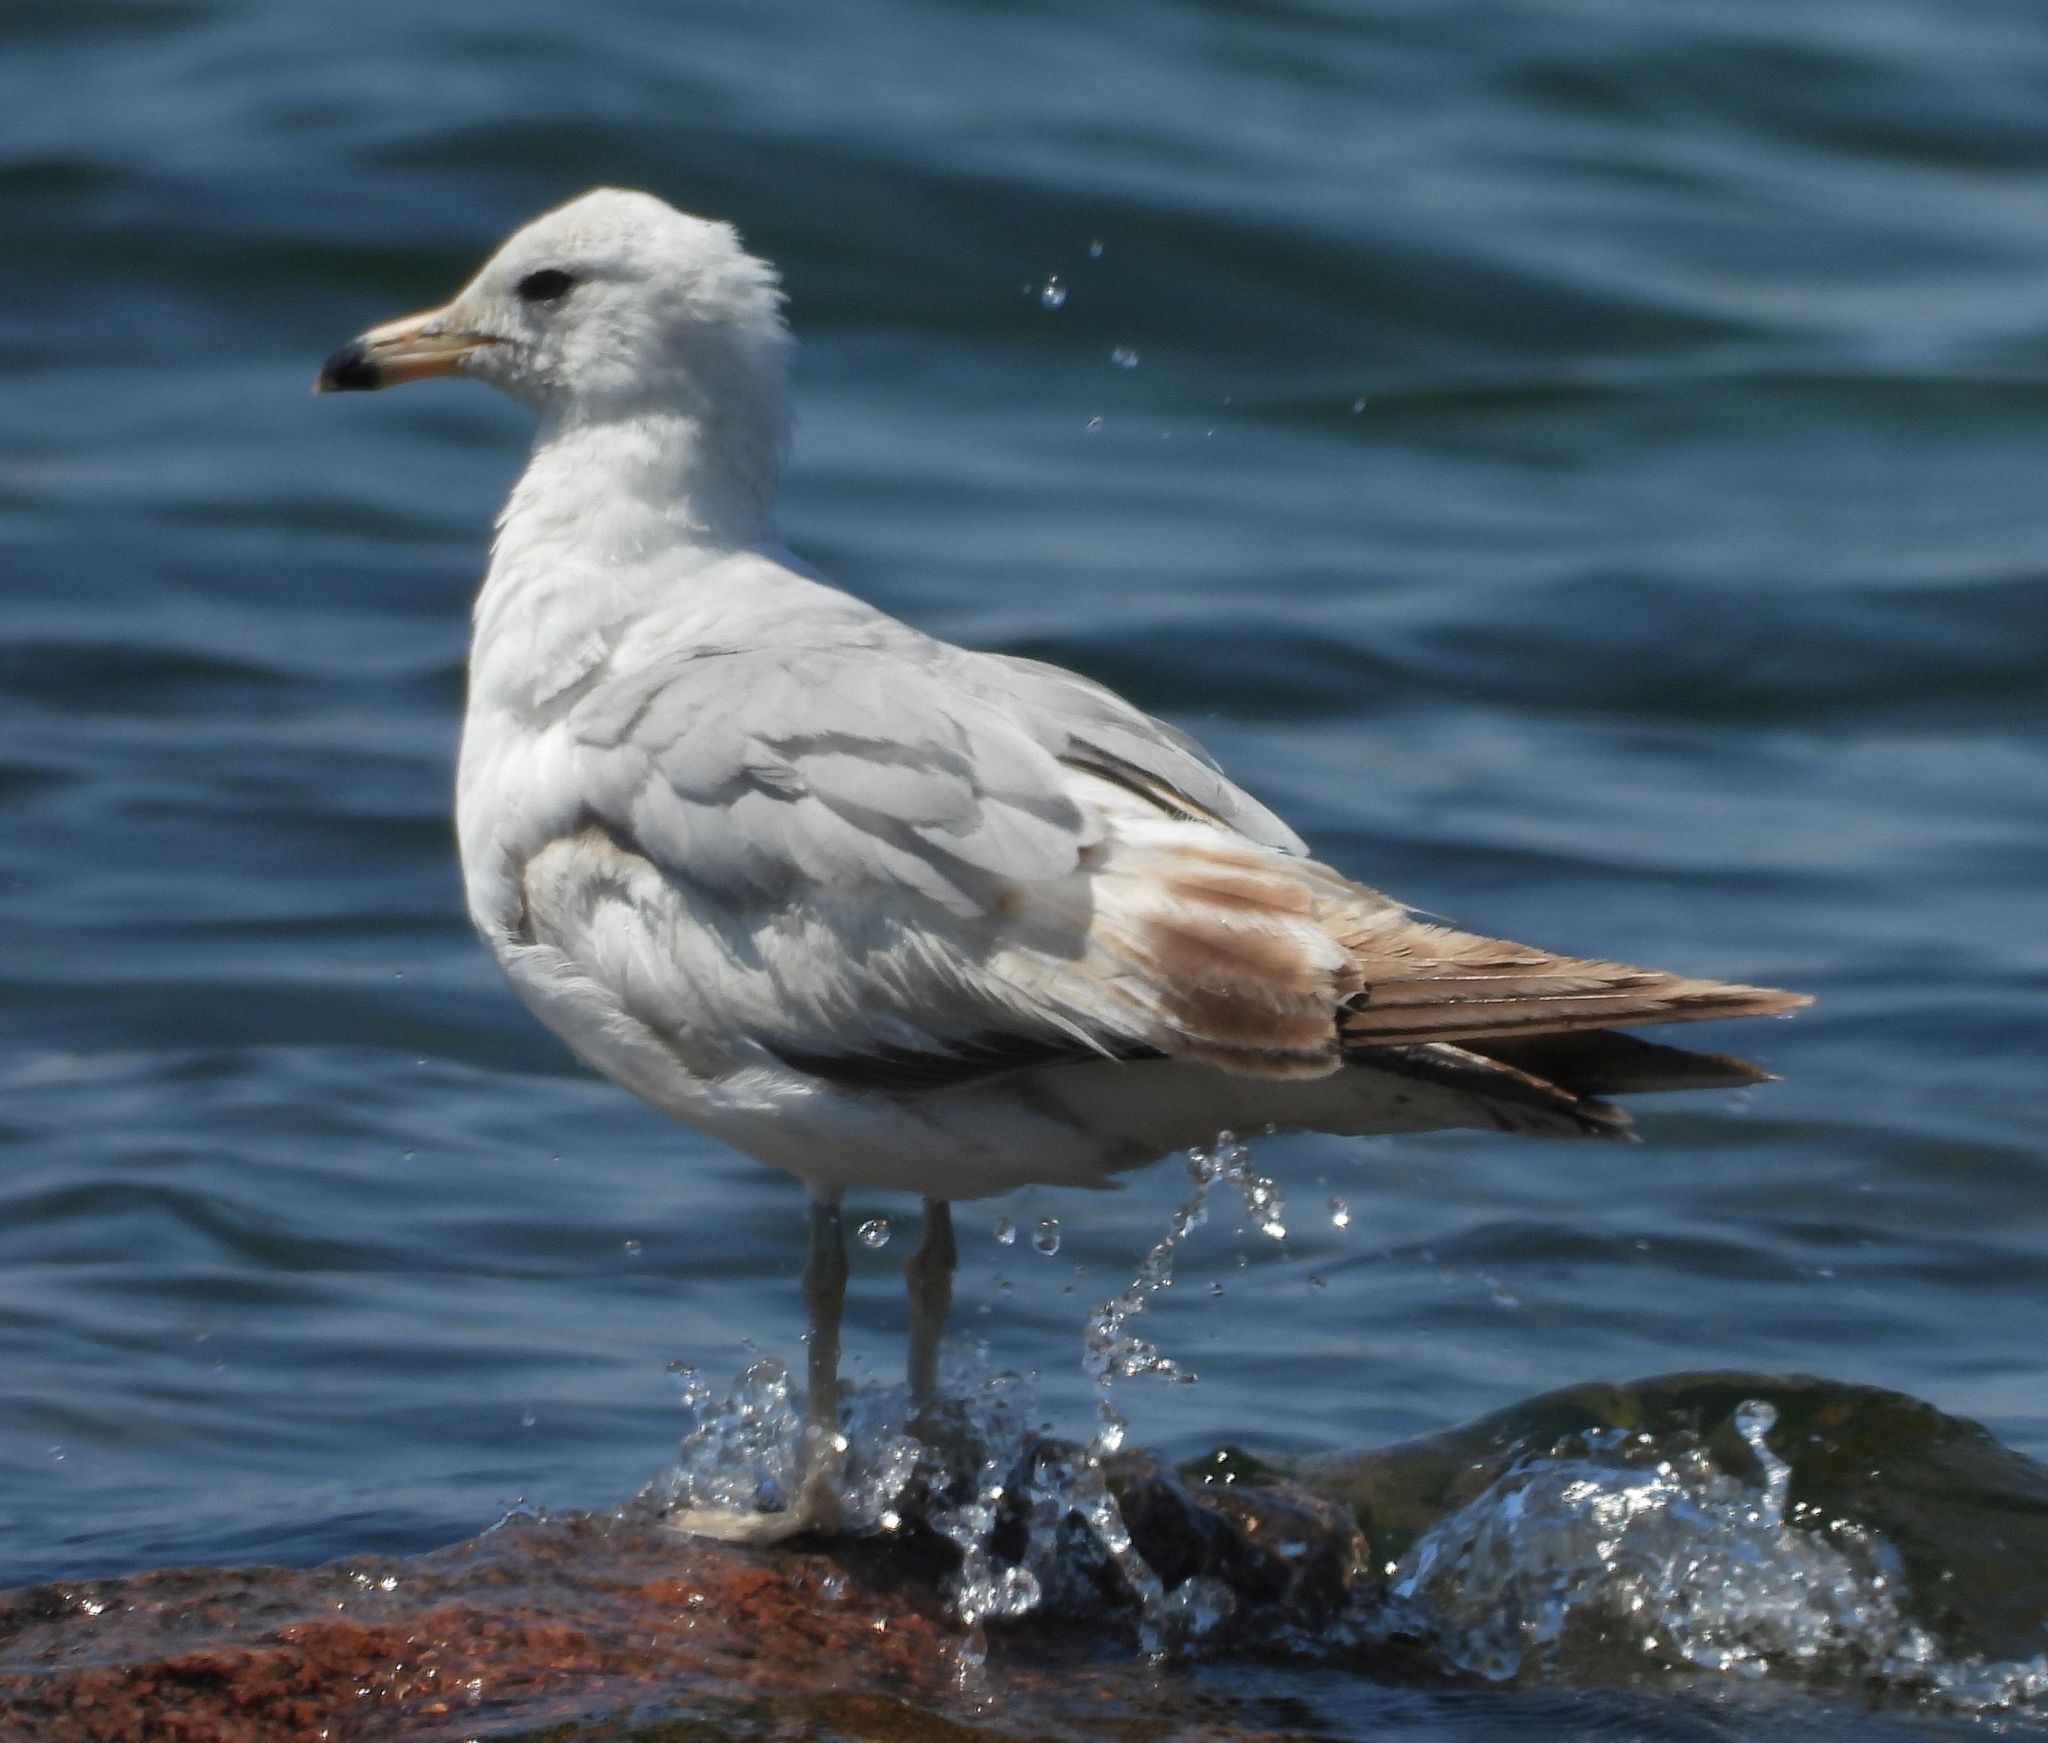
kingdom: Animalia
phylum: Chordata
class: Aves
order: Charadriiformes
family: Laridae
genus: Larus
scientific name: Larus delawarensis
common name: Ring-billed gull
